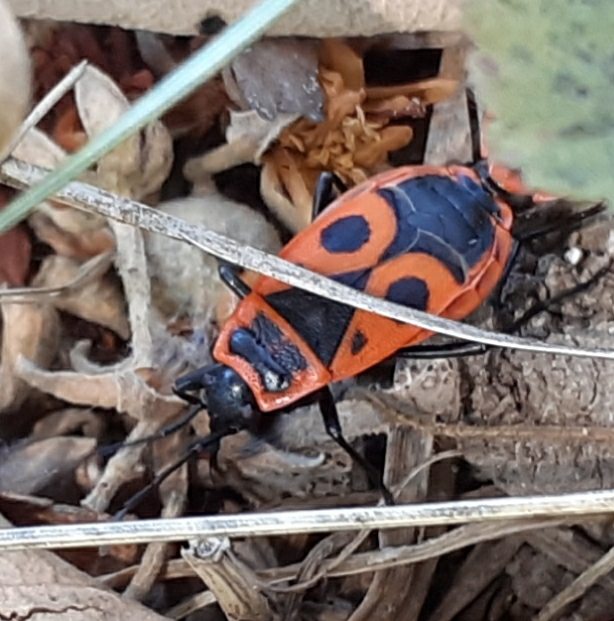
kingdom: Animalia
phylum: Arthropoda
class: Insecta
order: Hemiptera
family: Pyrrhocoridae
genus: Pyrrhocoris
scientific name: Pyrrhocoris apterus
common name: Firebug
